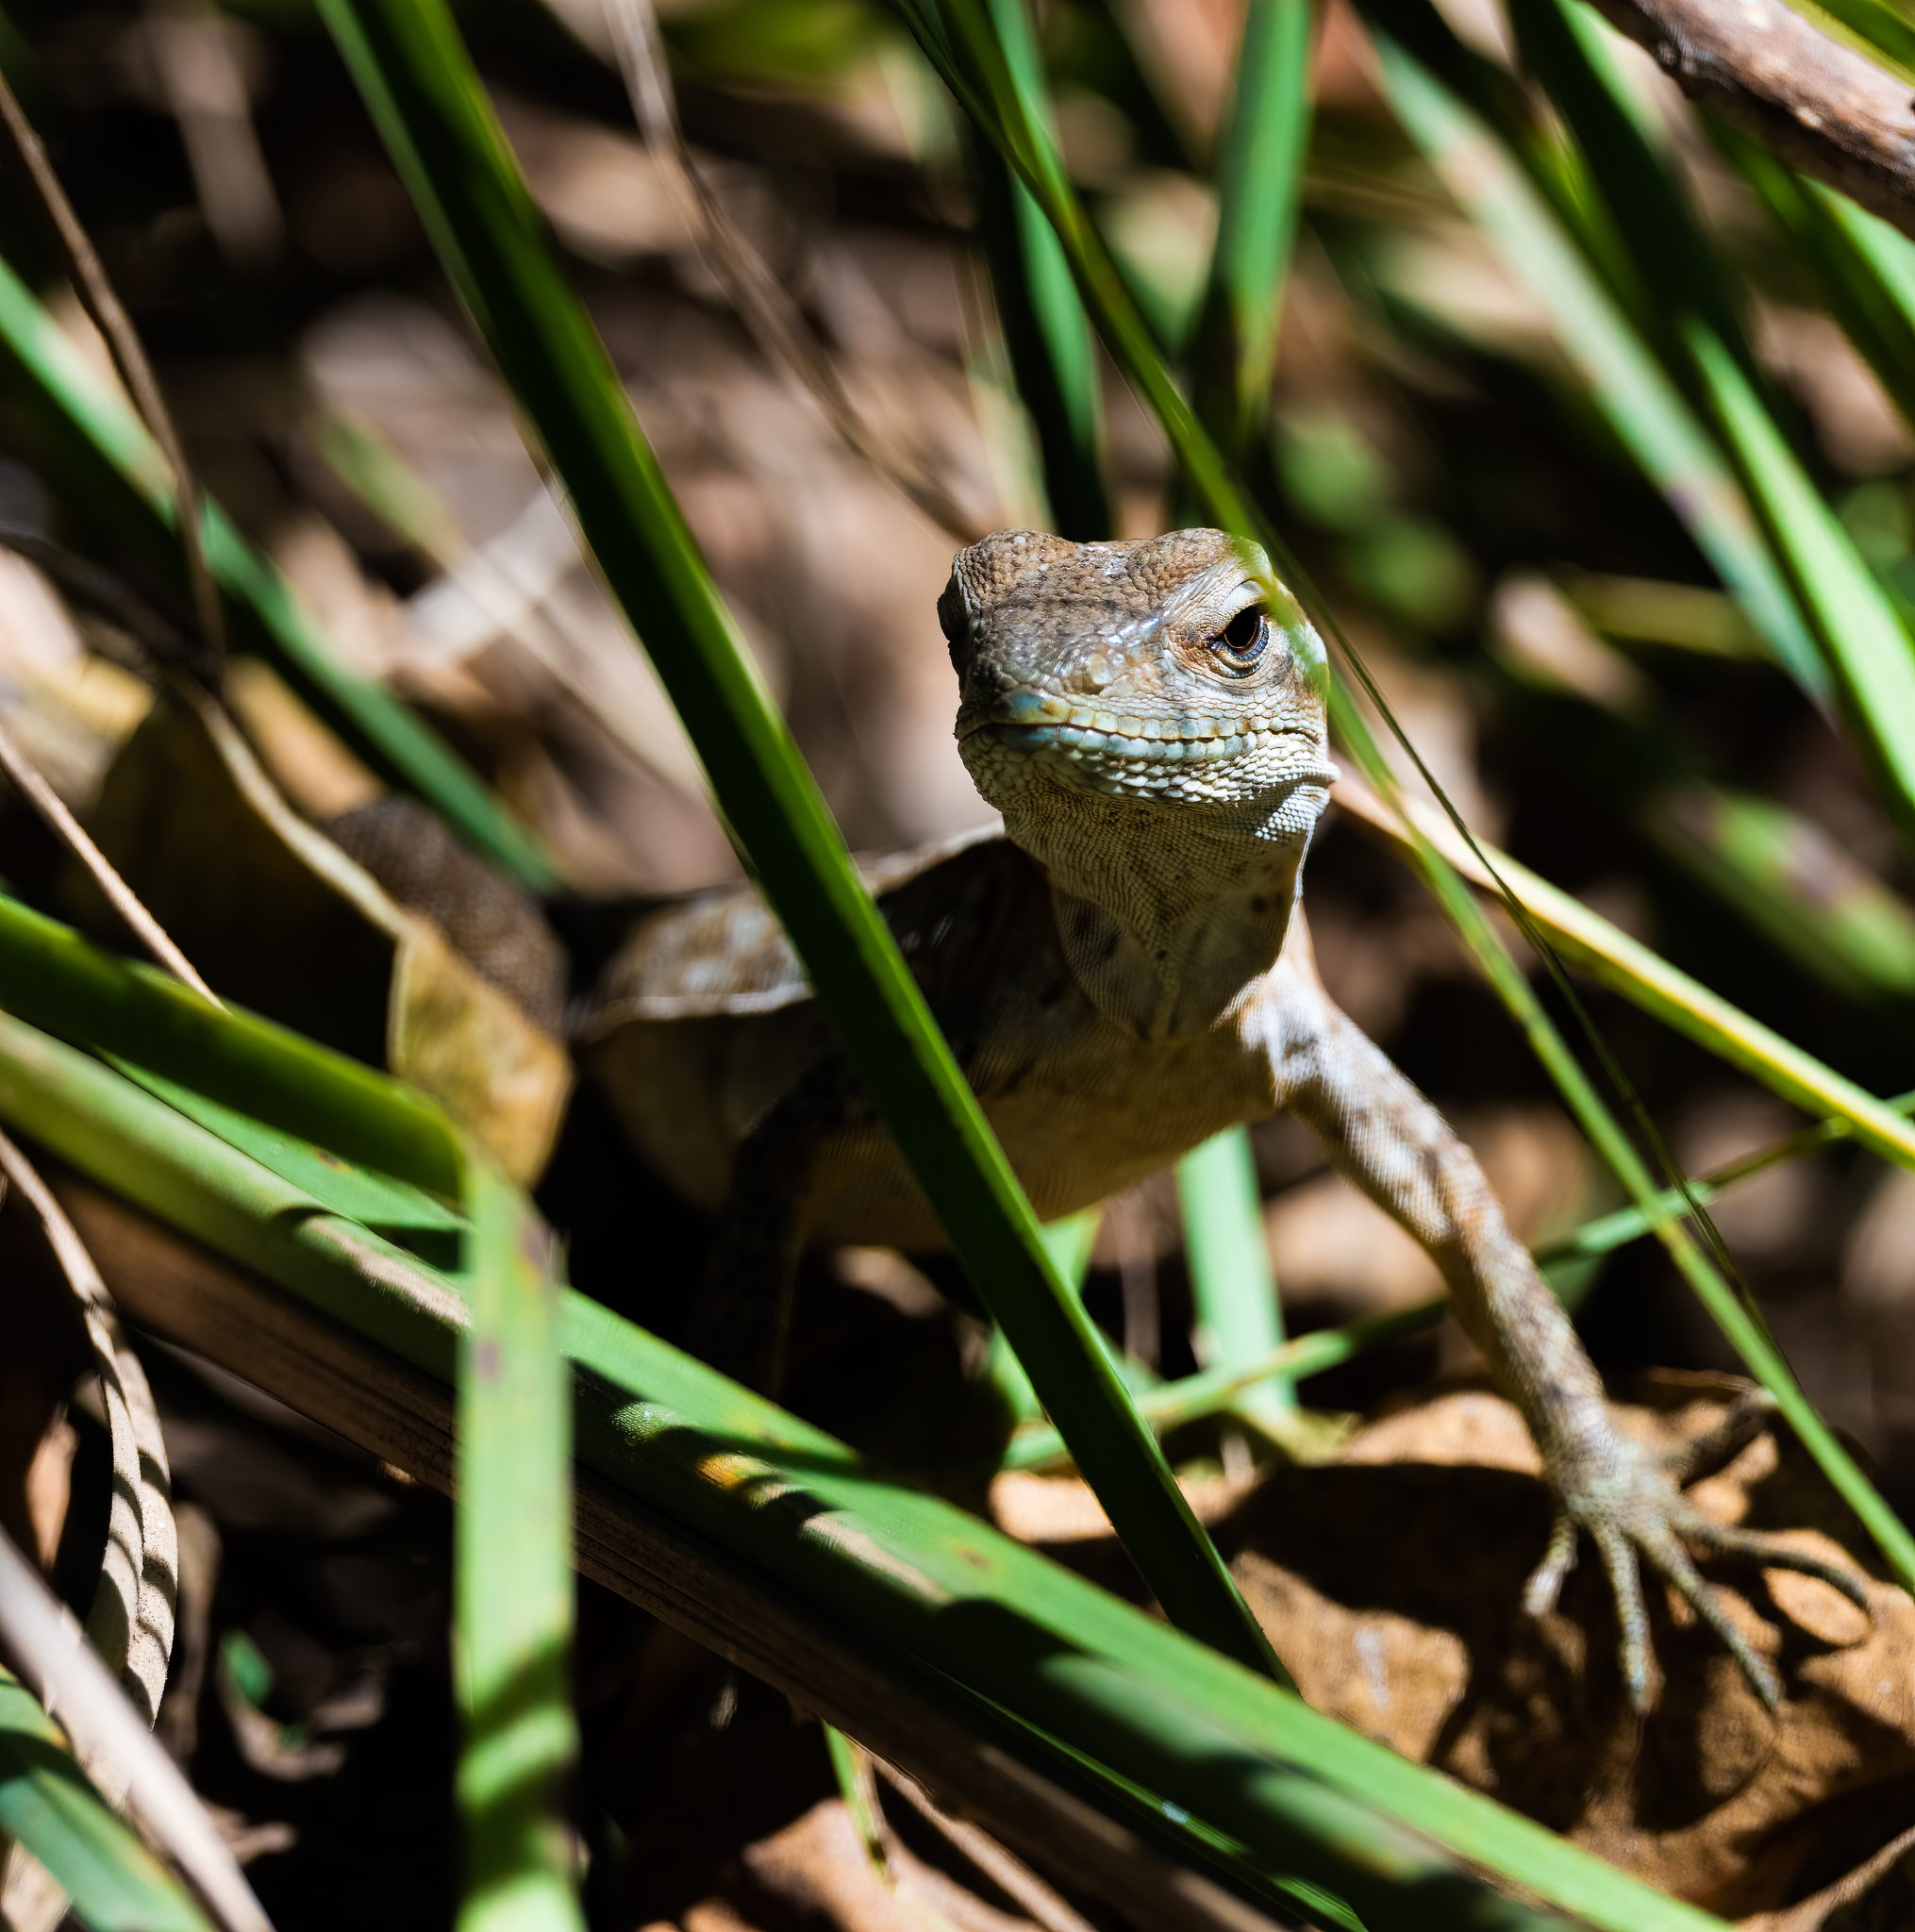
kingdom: Animalia
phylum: Chordata
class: Squamata
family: Iguanidae
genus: Ctenosaura
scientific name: Ctenosaura pectinata
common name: Guerreran spiny-tailed iguana
